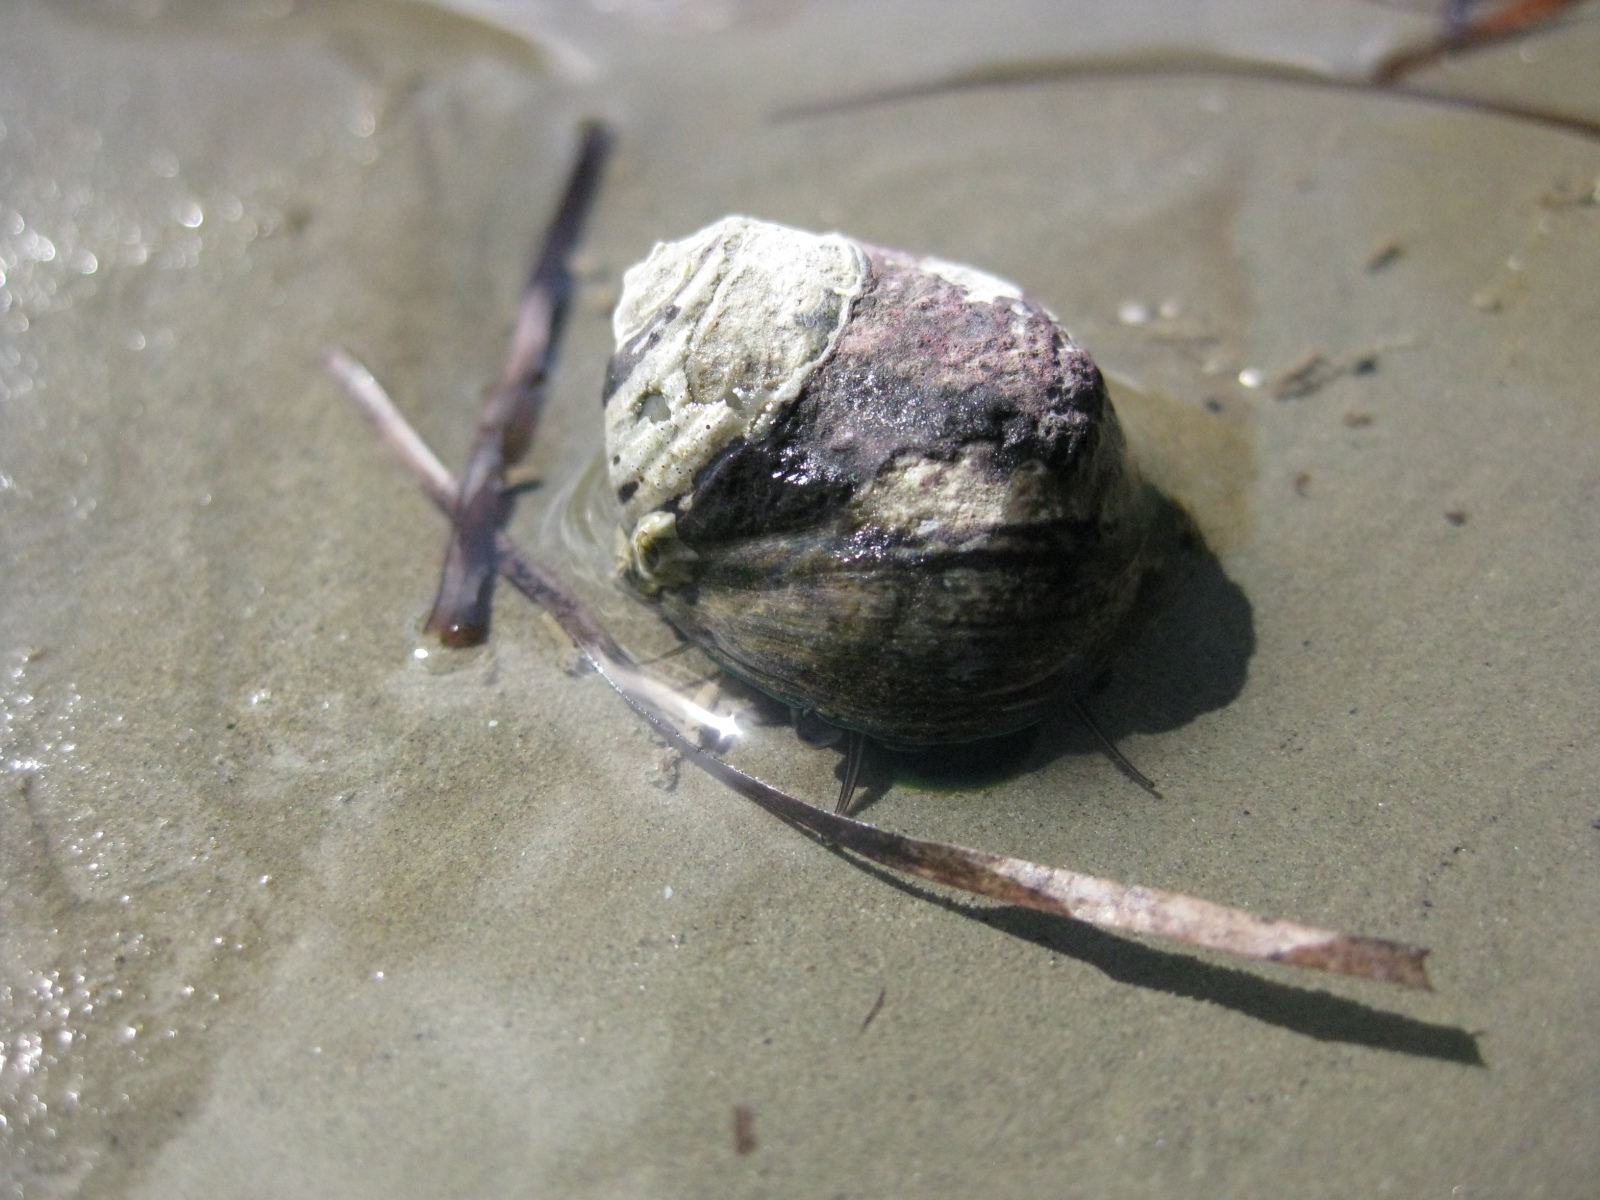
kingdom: Animalia
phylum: Mollusca
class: Gastropoda
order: Trochida
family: Trochidae
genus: Diloma
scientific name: Diloma aethiops
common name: Scorched monodont
